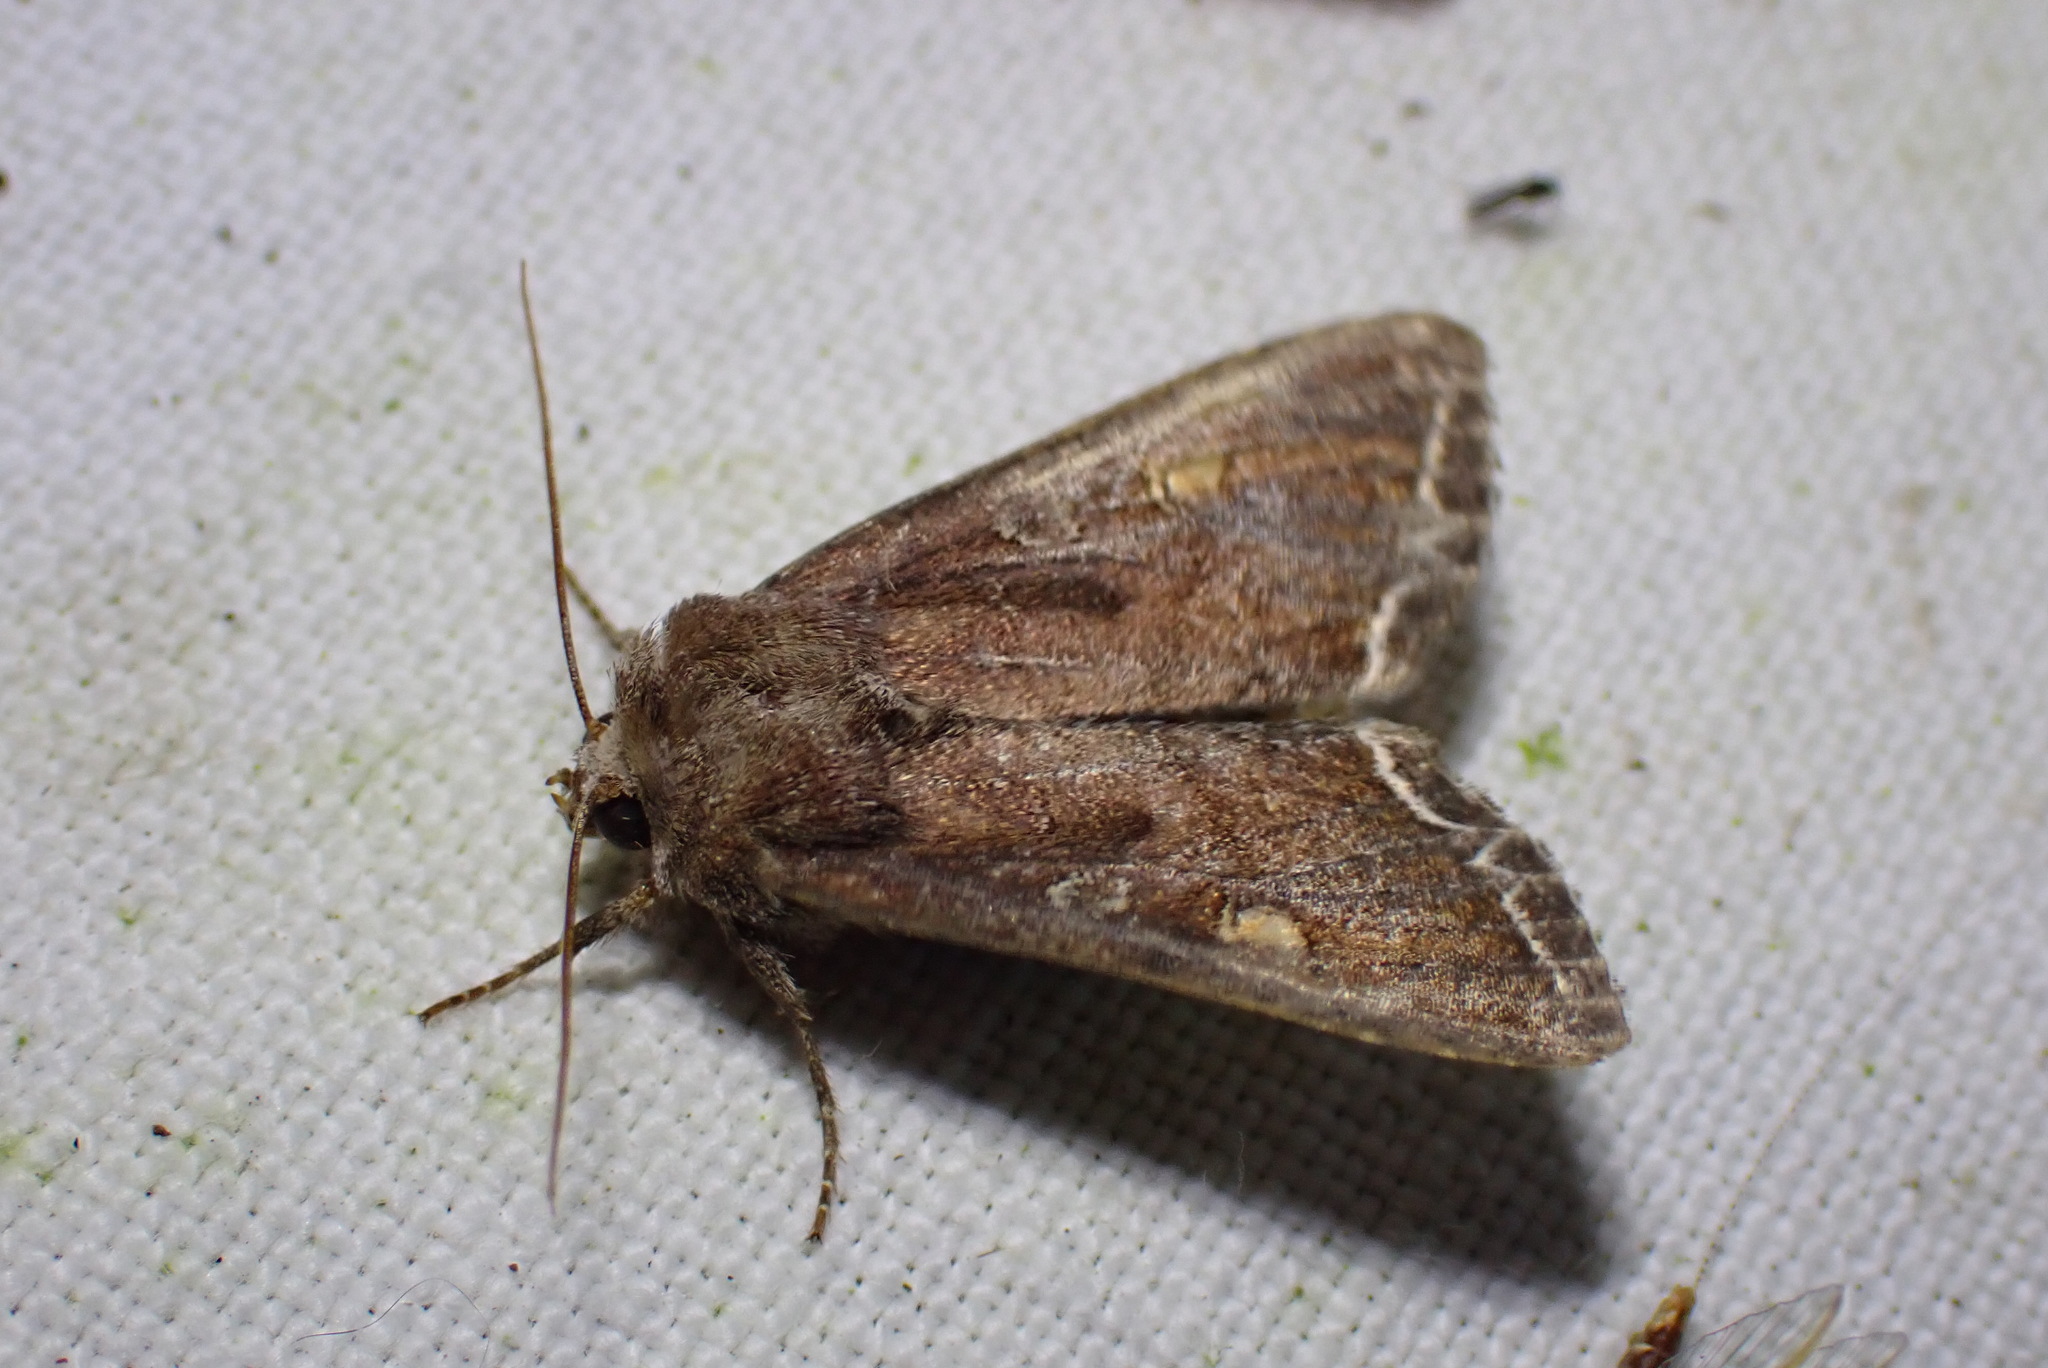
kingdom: Animalia
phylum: Arthropoda
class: Insecta
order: Lepidoptera
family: Noctuidae
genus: Lacanobia
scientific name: Lacanobia oleracea
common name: Bright-line brown-eye
